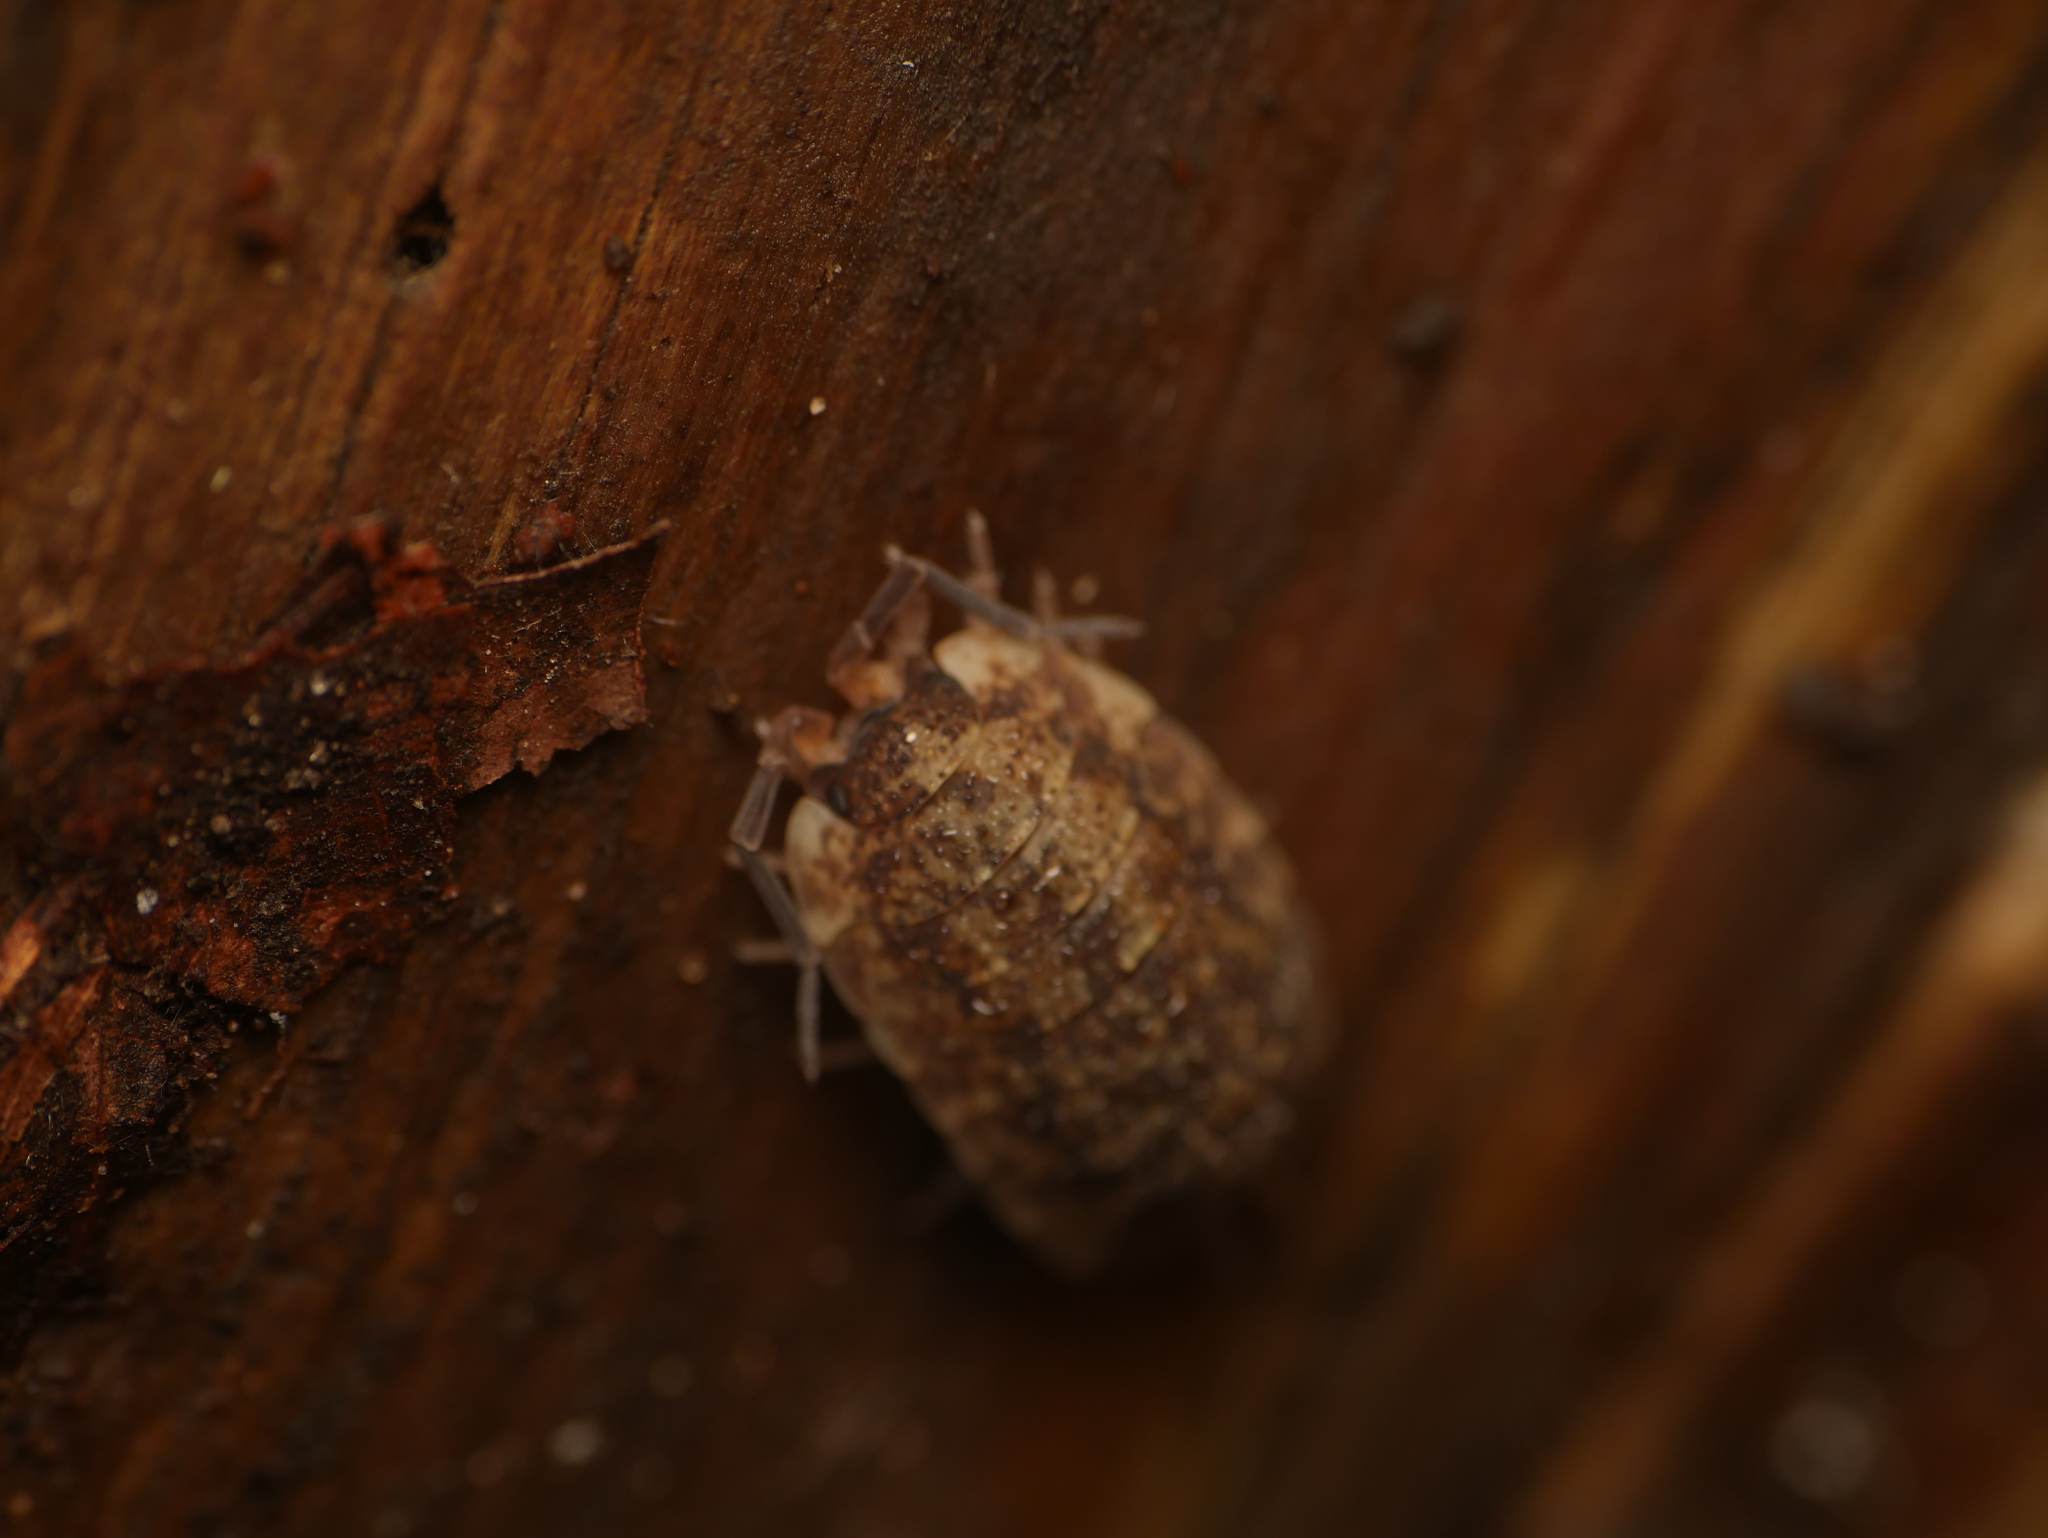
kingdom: Animalia
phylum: Arthropoda
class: Malacostraca
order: Isopoda
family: Porcellionidae
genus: Porcellio
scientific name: Porcellio scaber
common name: Common rough woodlouse
